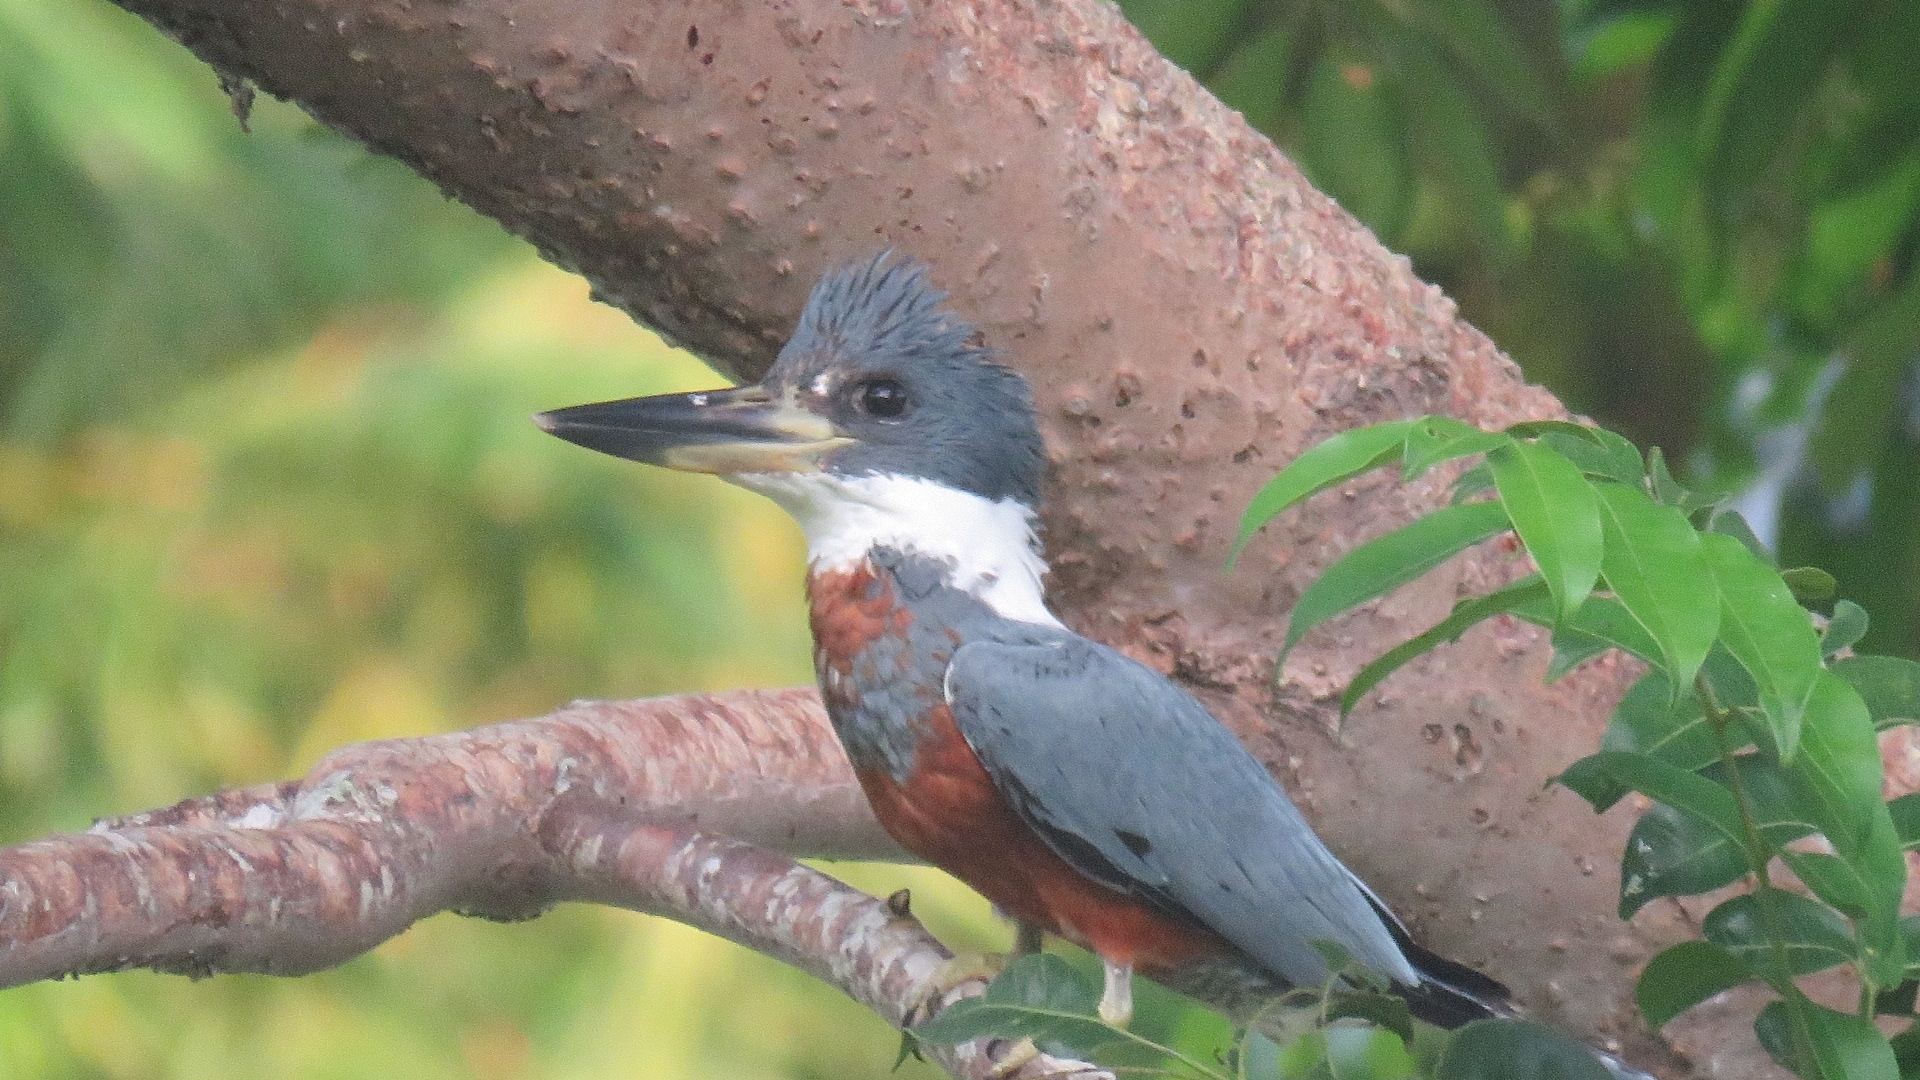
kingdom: Animalia
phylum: Chordata
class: Aves
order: Coraciiformes
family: Alcedinidae
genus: Megaceryle
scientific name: Megaceryle torquata
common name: Ringed kingfisher
